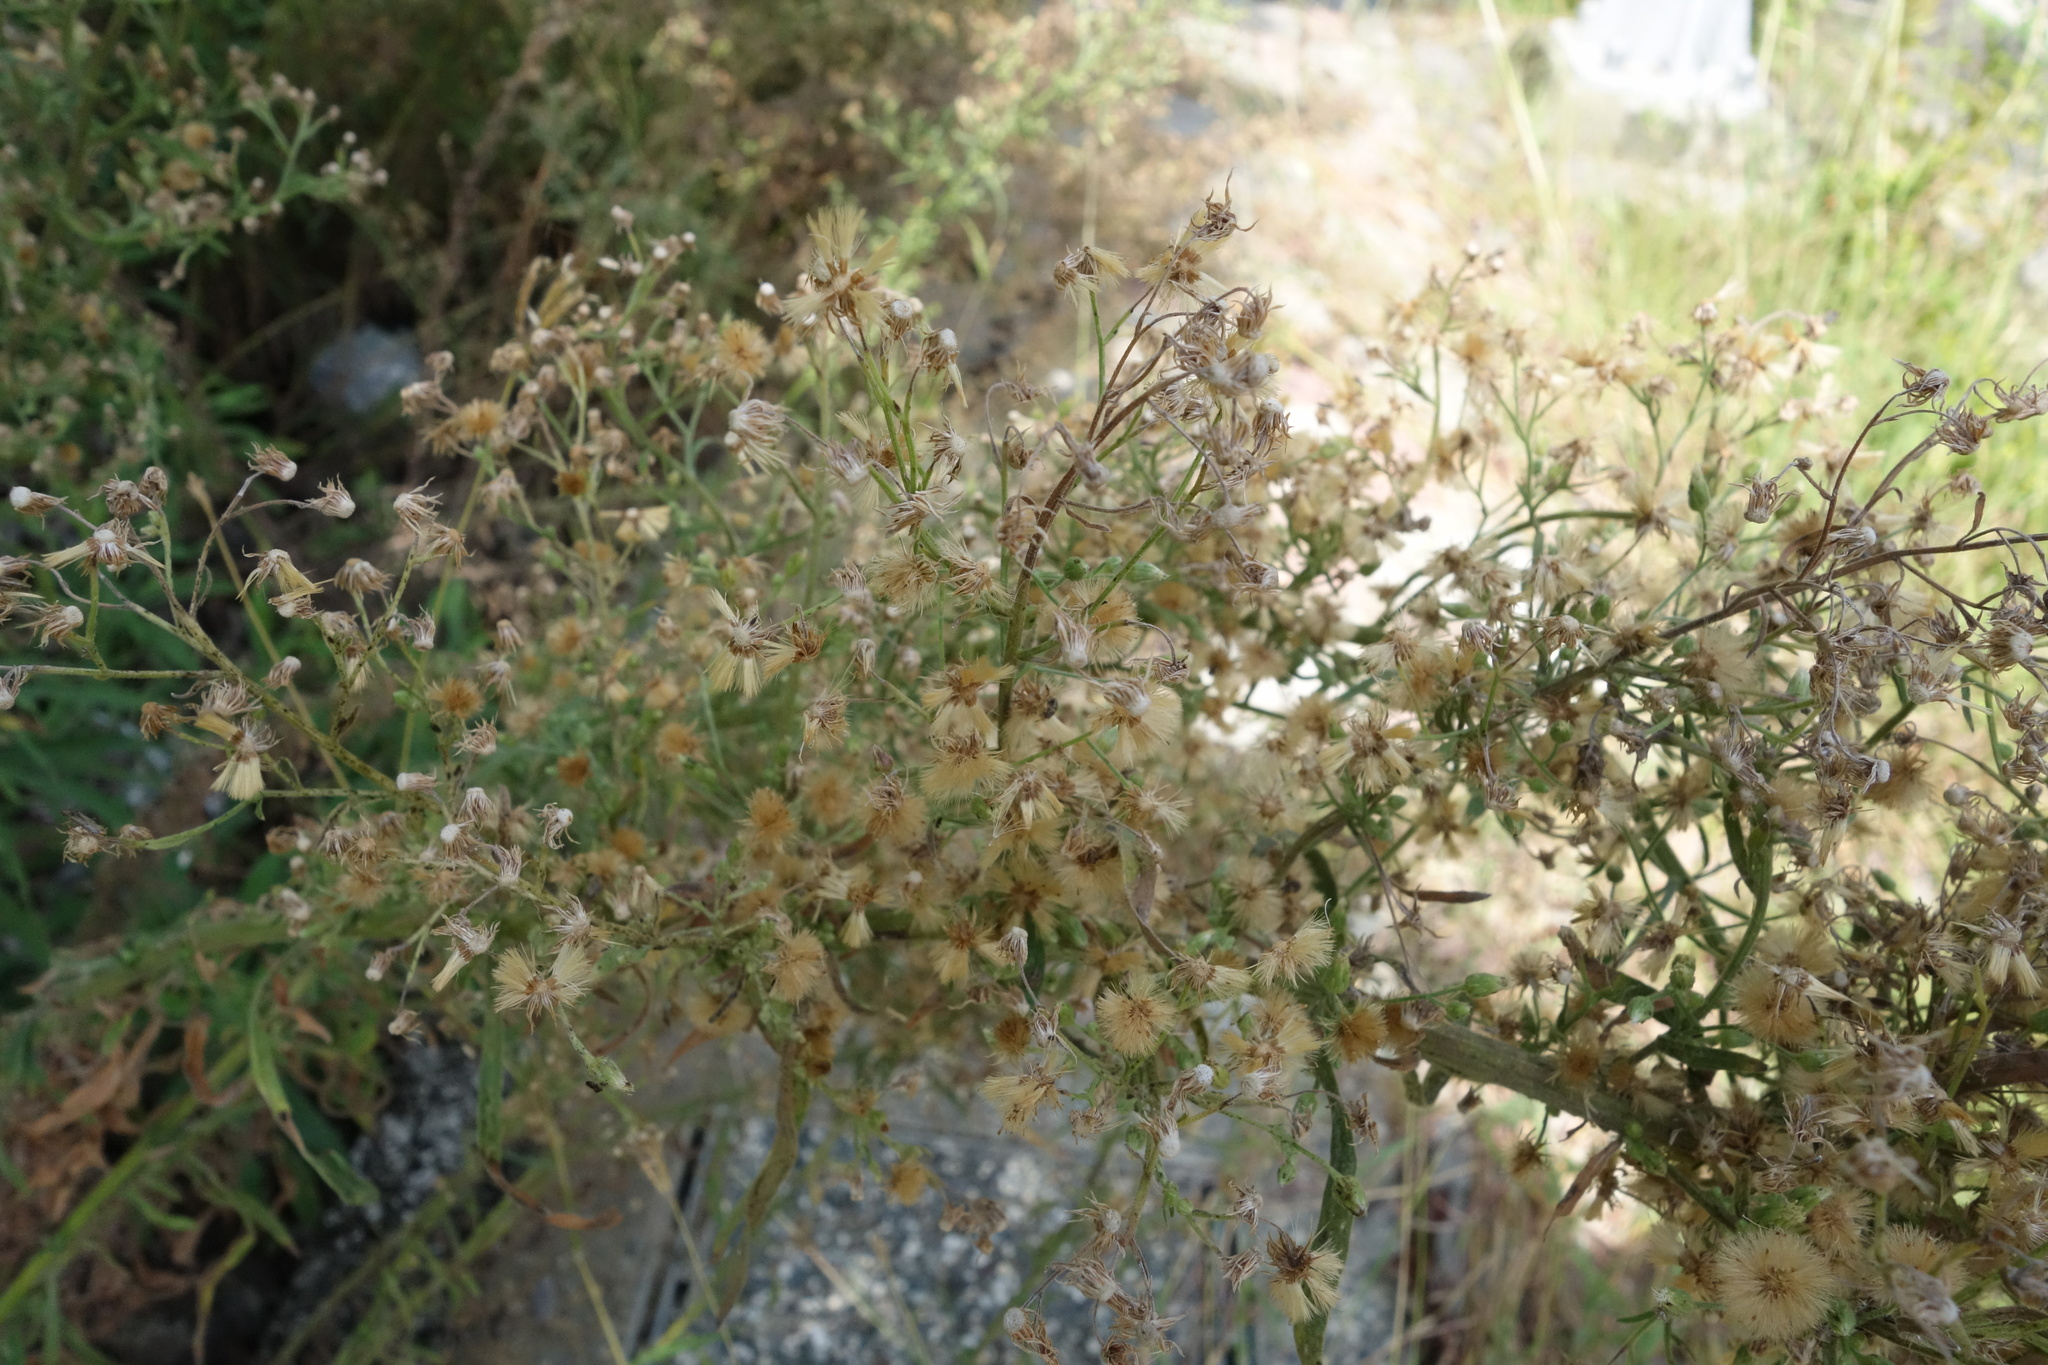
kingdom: Plantae
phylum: Tracheophyta
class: Magnoliopsida
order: Asterales
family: Asteraceae
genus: Erigeron
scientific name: Erigeron sumatrensis
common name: Daisy
